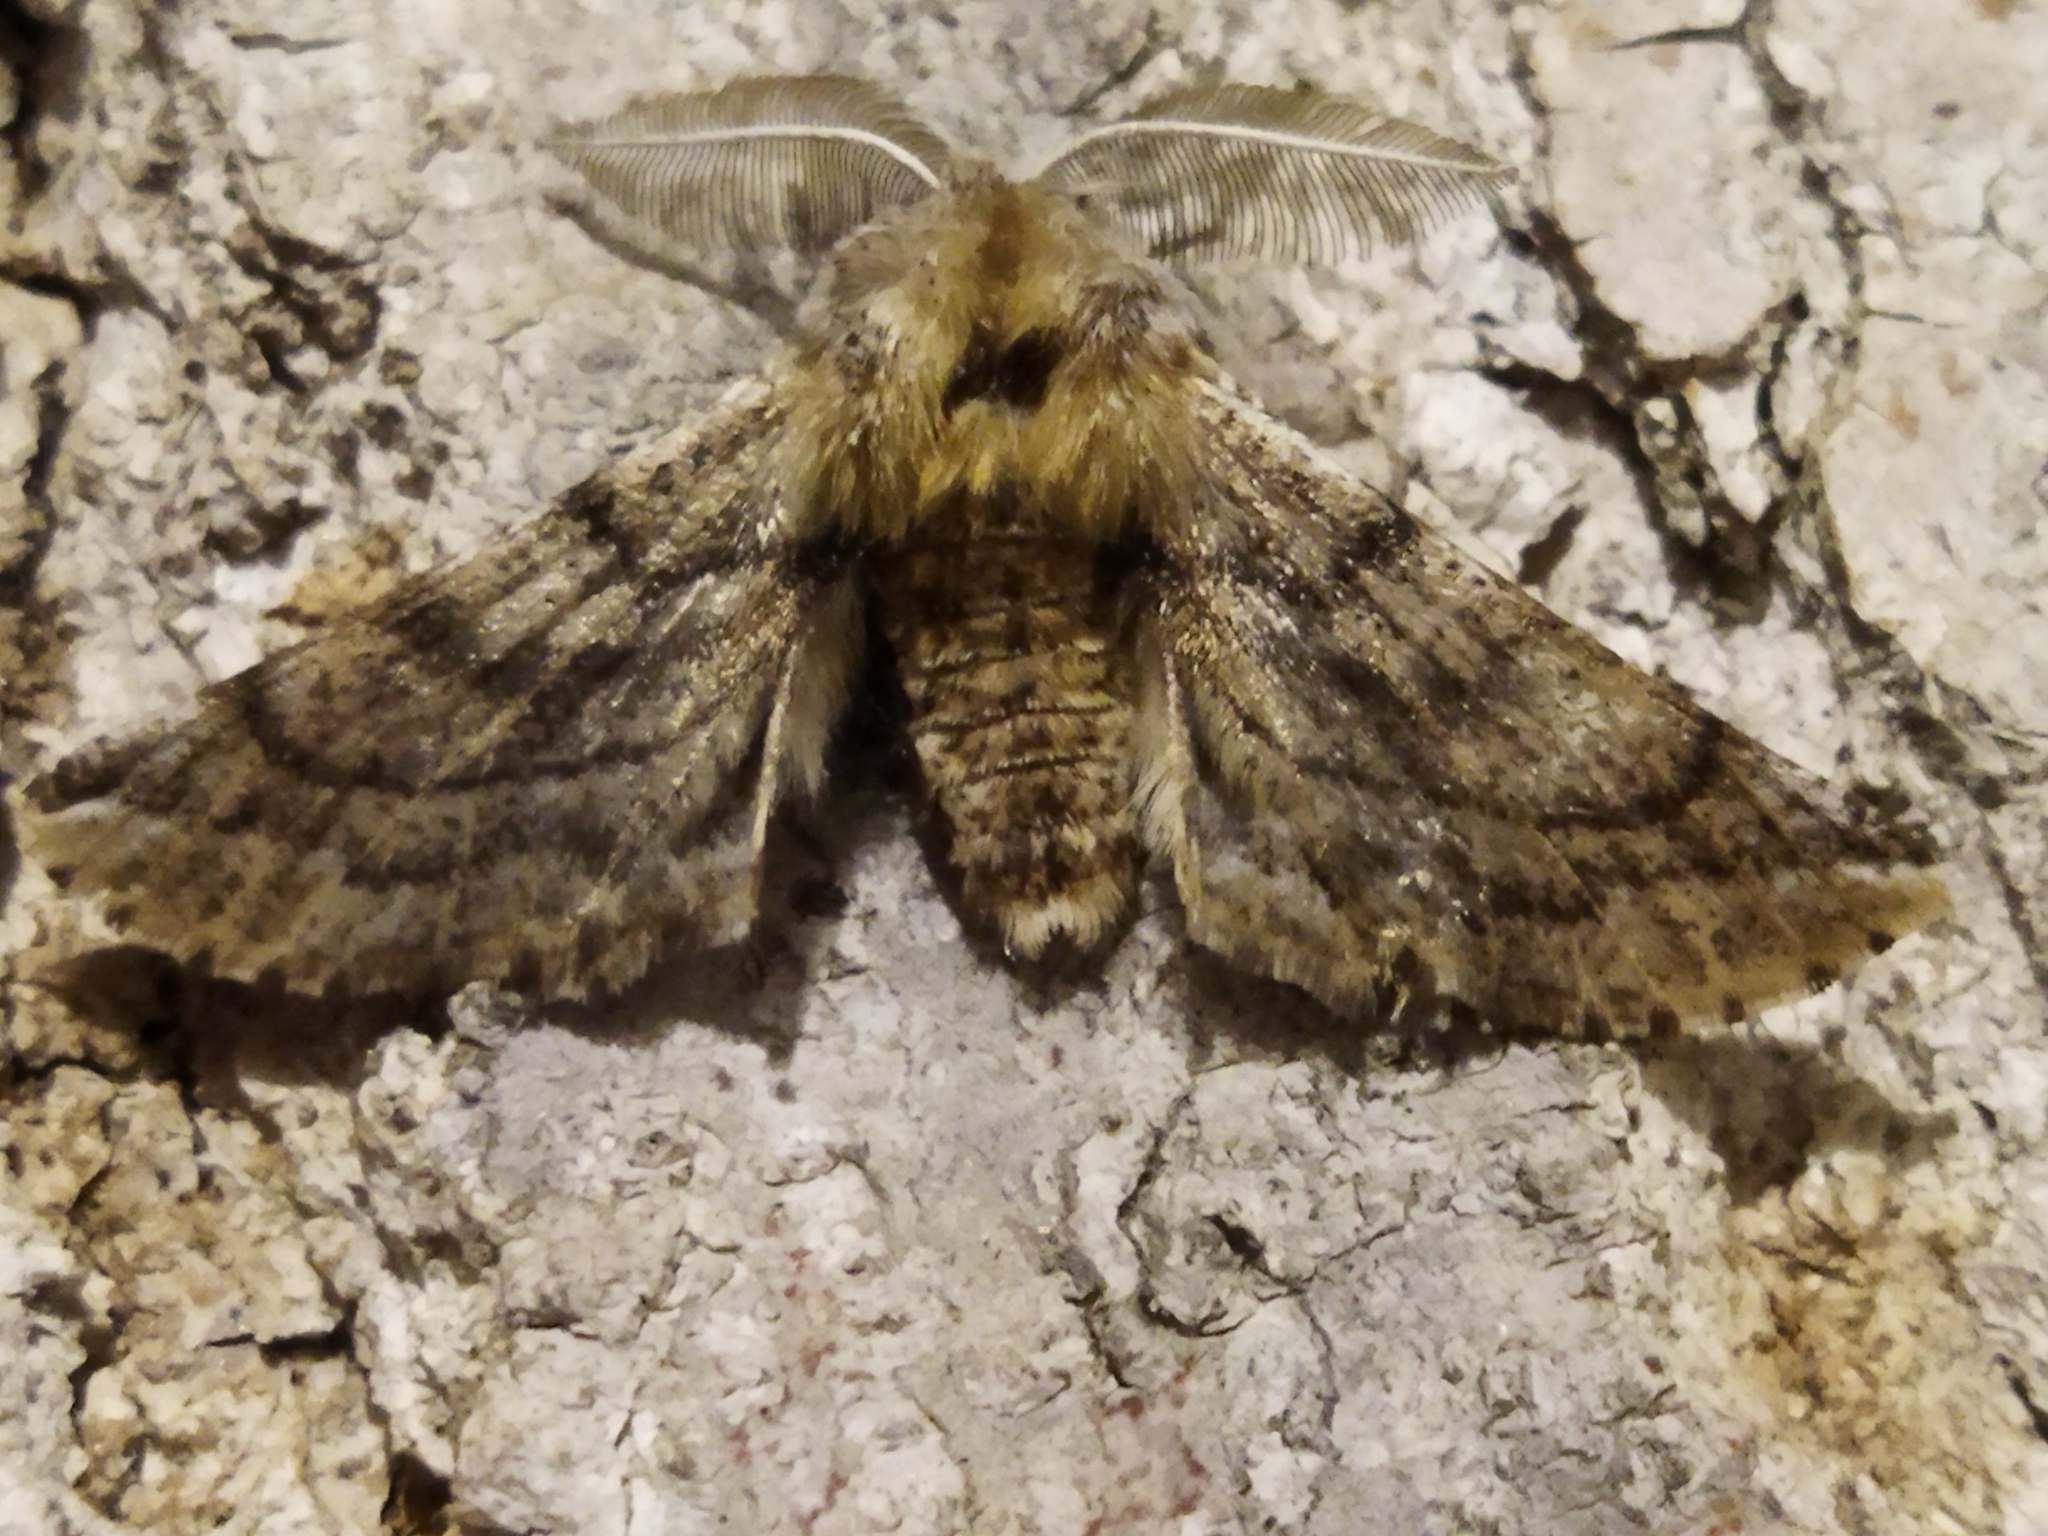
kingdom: Animalia
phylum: Arthropoda
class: Insecta
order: Lepidoptera
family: Geometridae
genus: Apochima
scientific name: Apochima flabellaria
